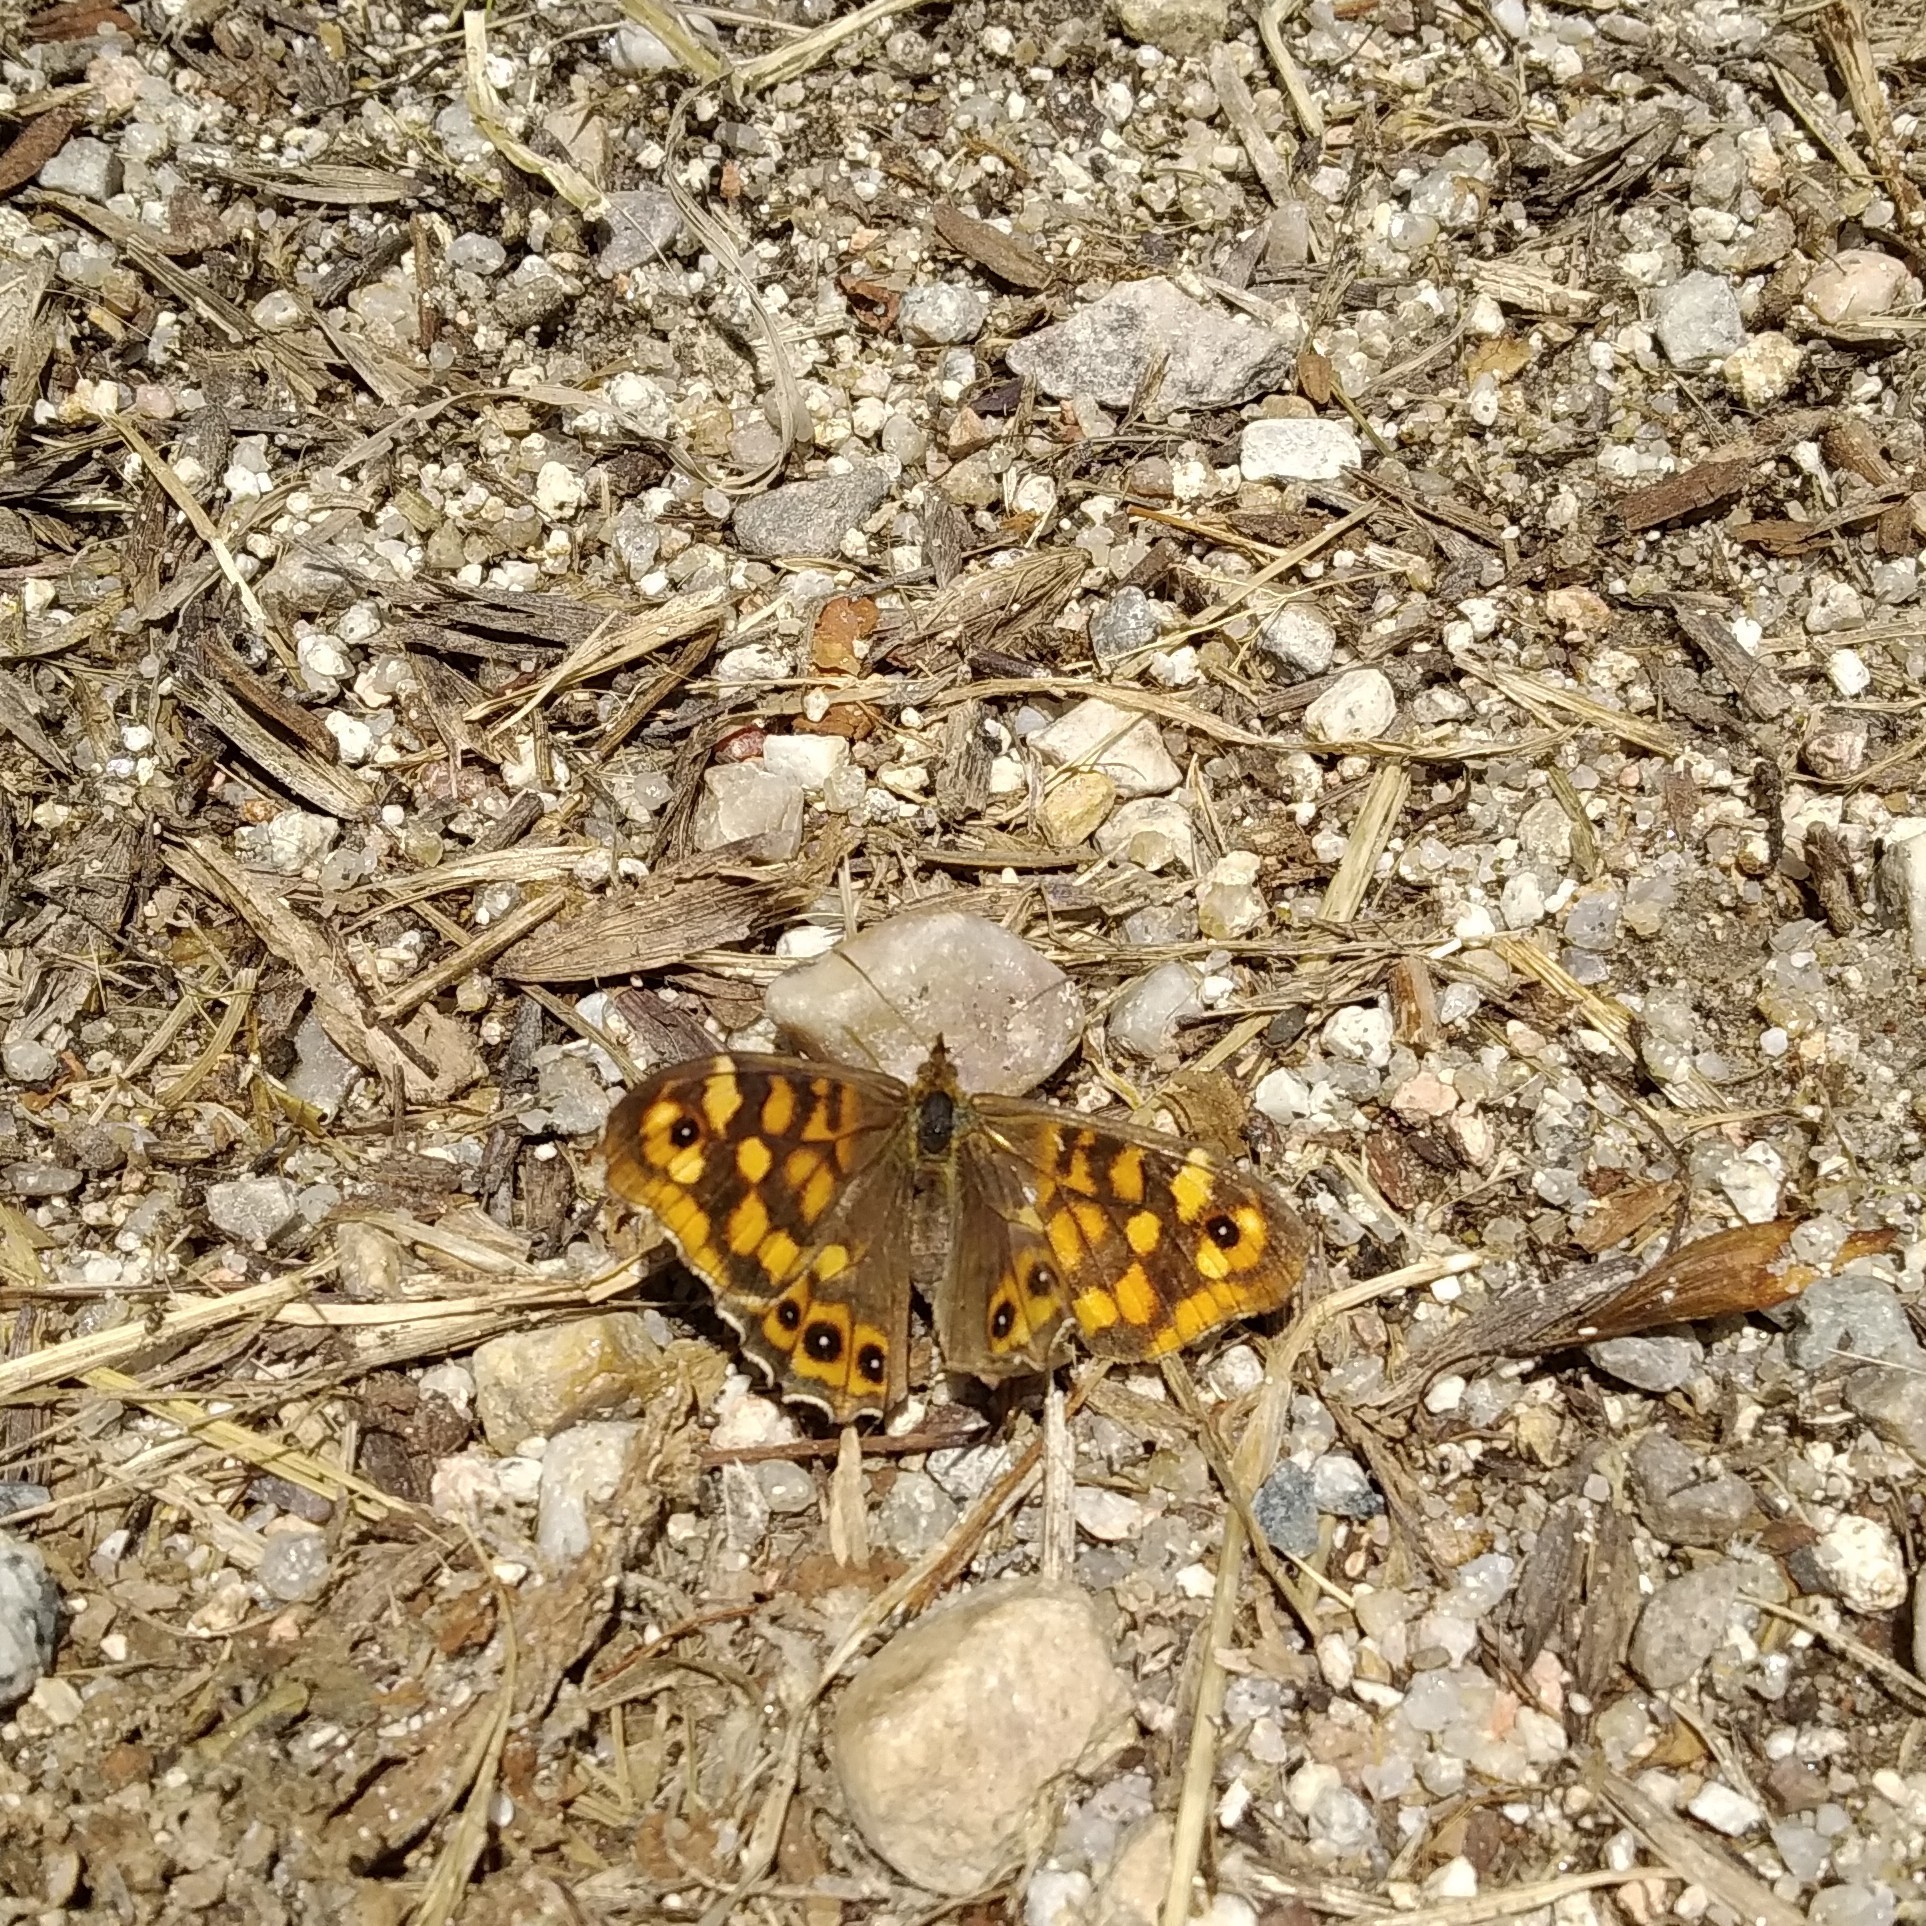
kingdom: Animalia
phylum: Arthropoda
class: Insecta
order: Lepidoptera
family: Nymphalidae
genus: Pararge
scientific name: Pararge aegeria
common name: Speckled wood
